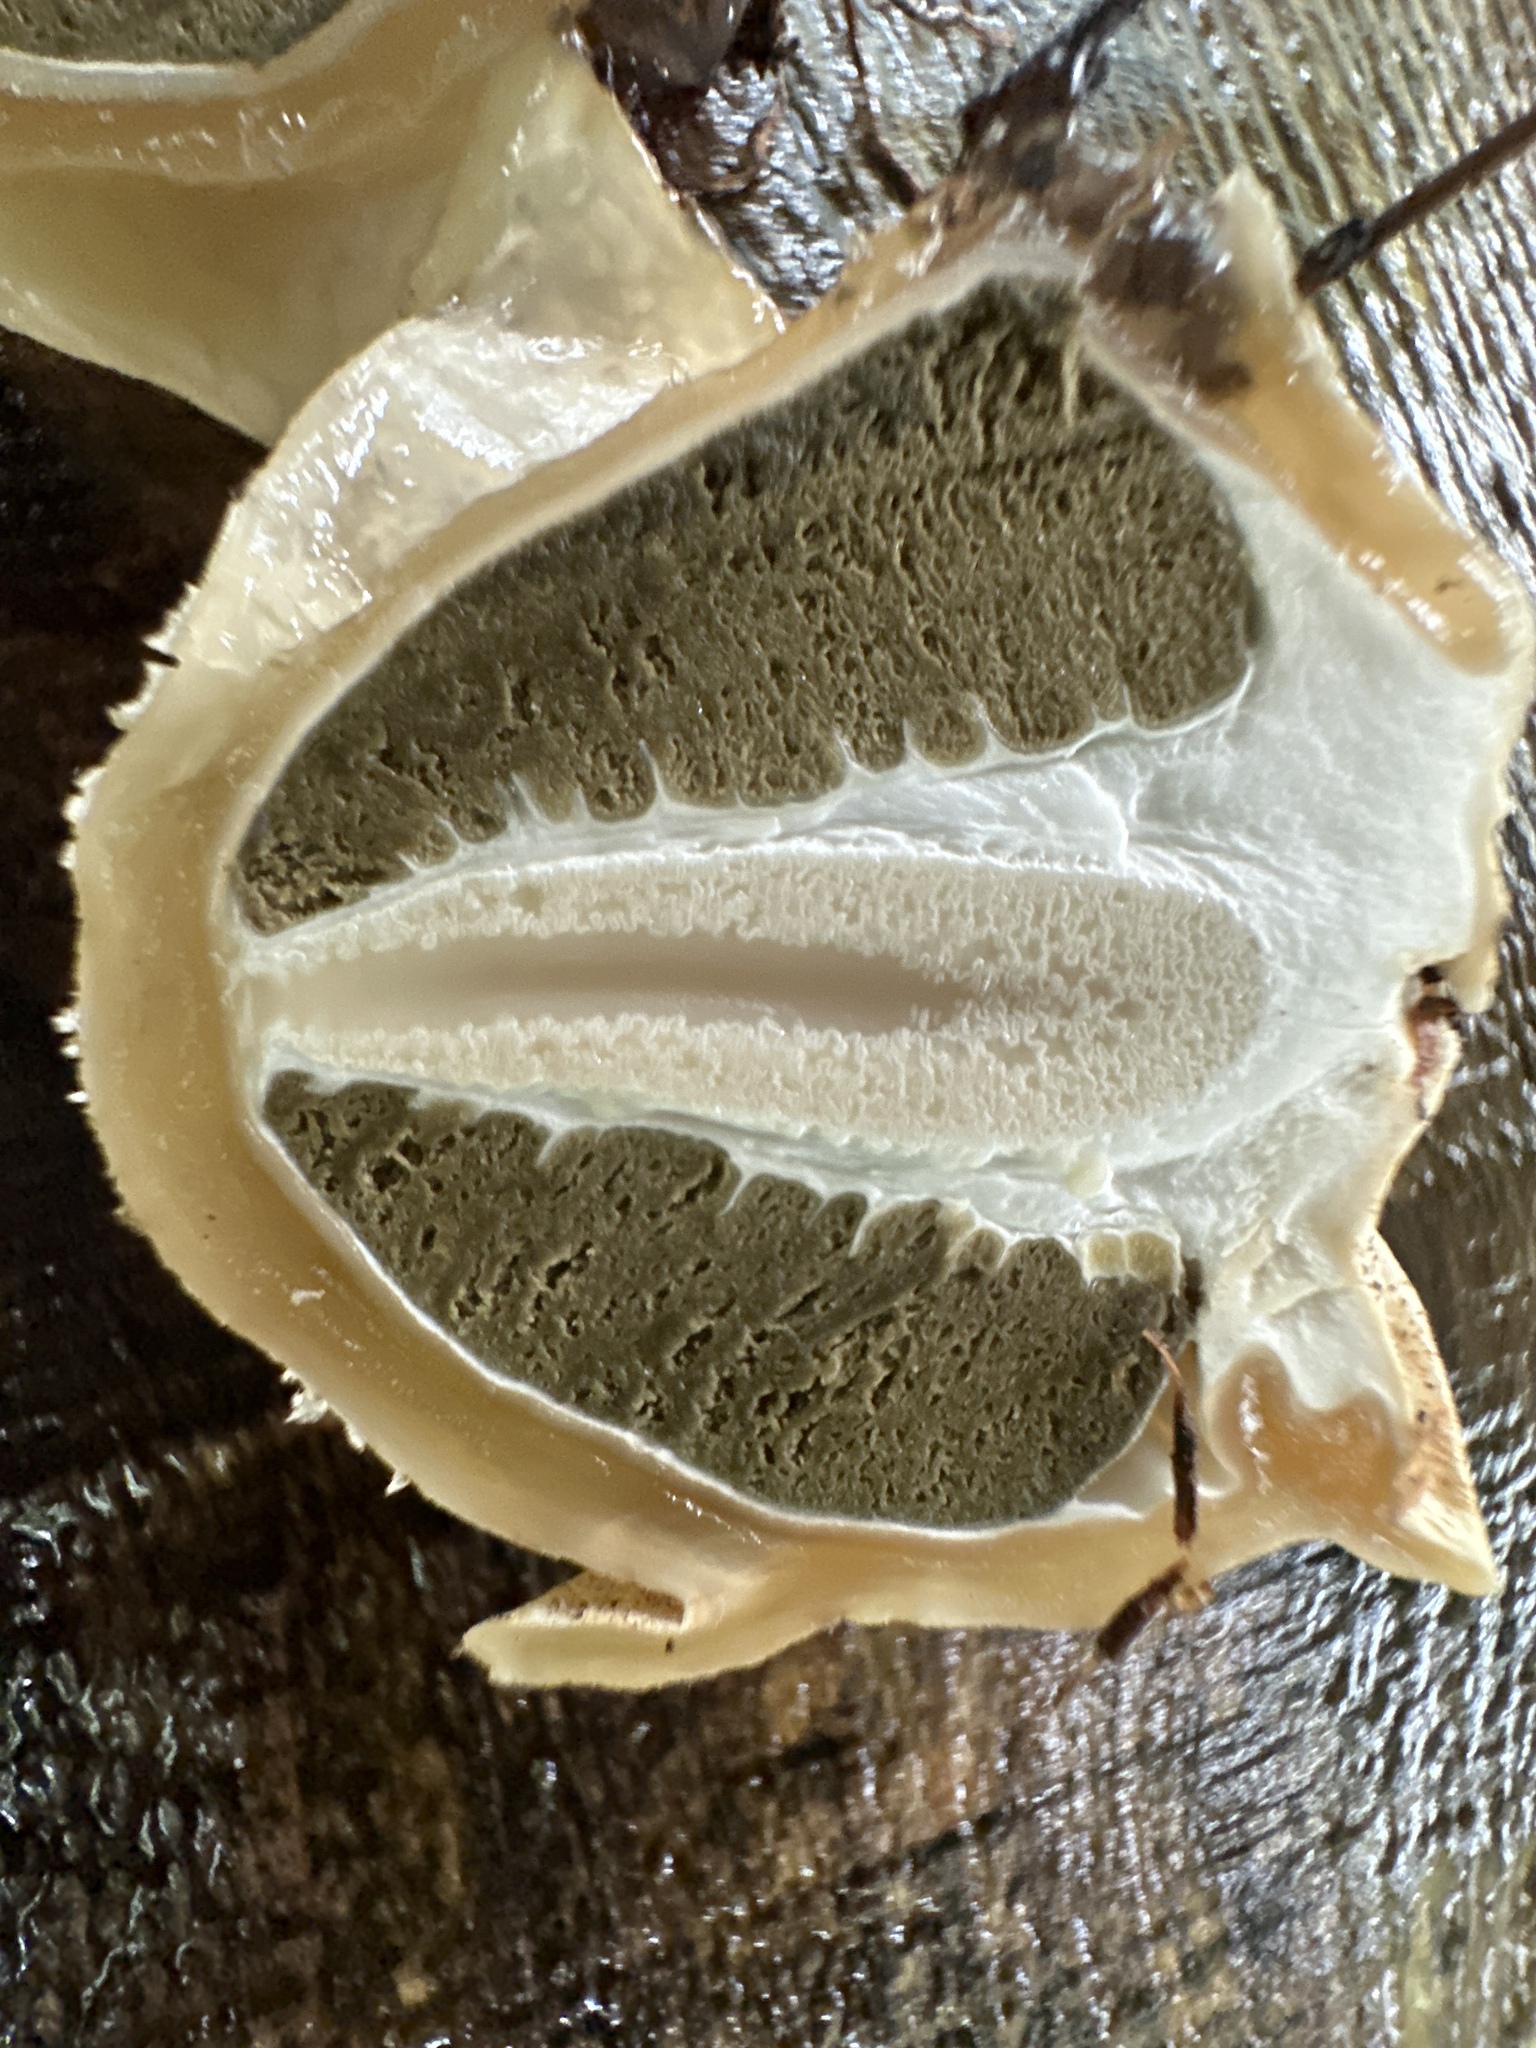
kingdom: Fungi
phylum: Basidiomycota
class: Agaricomycetes
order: Phallales
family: Phallaceae
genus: Phallus
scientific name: Phallus impudicus
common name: Common stinkhorn
